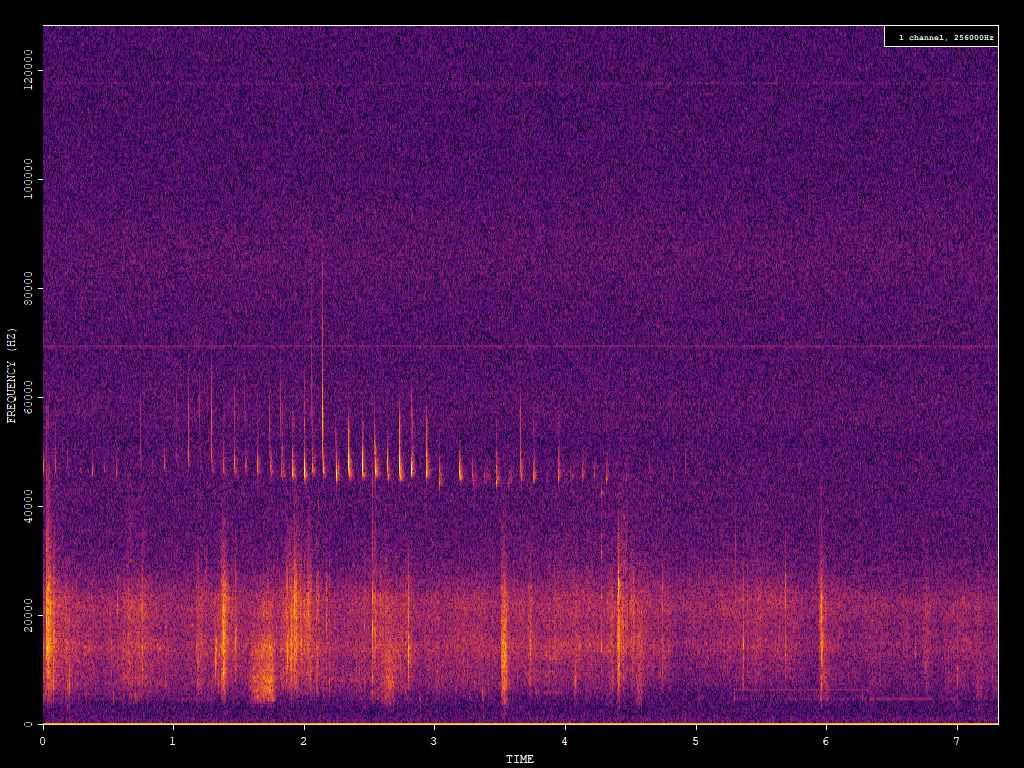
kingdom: Animalia
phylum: Chordata
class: Mammalia
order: Chiroptera
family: Vespertilionidae
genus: Pipistrellus
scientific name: Pipistrellus pipistrellus
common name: Common pipistrelle
